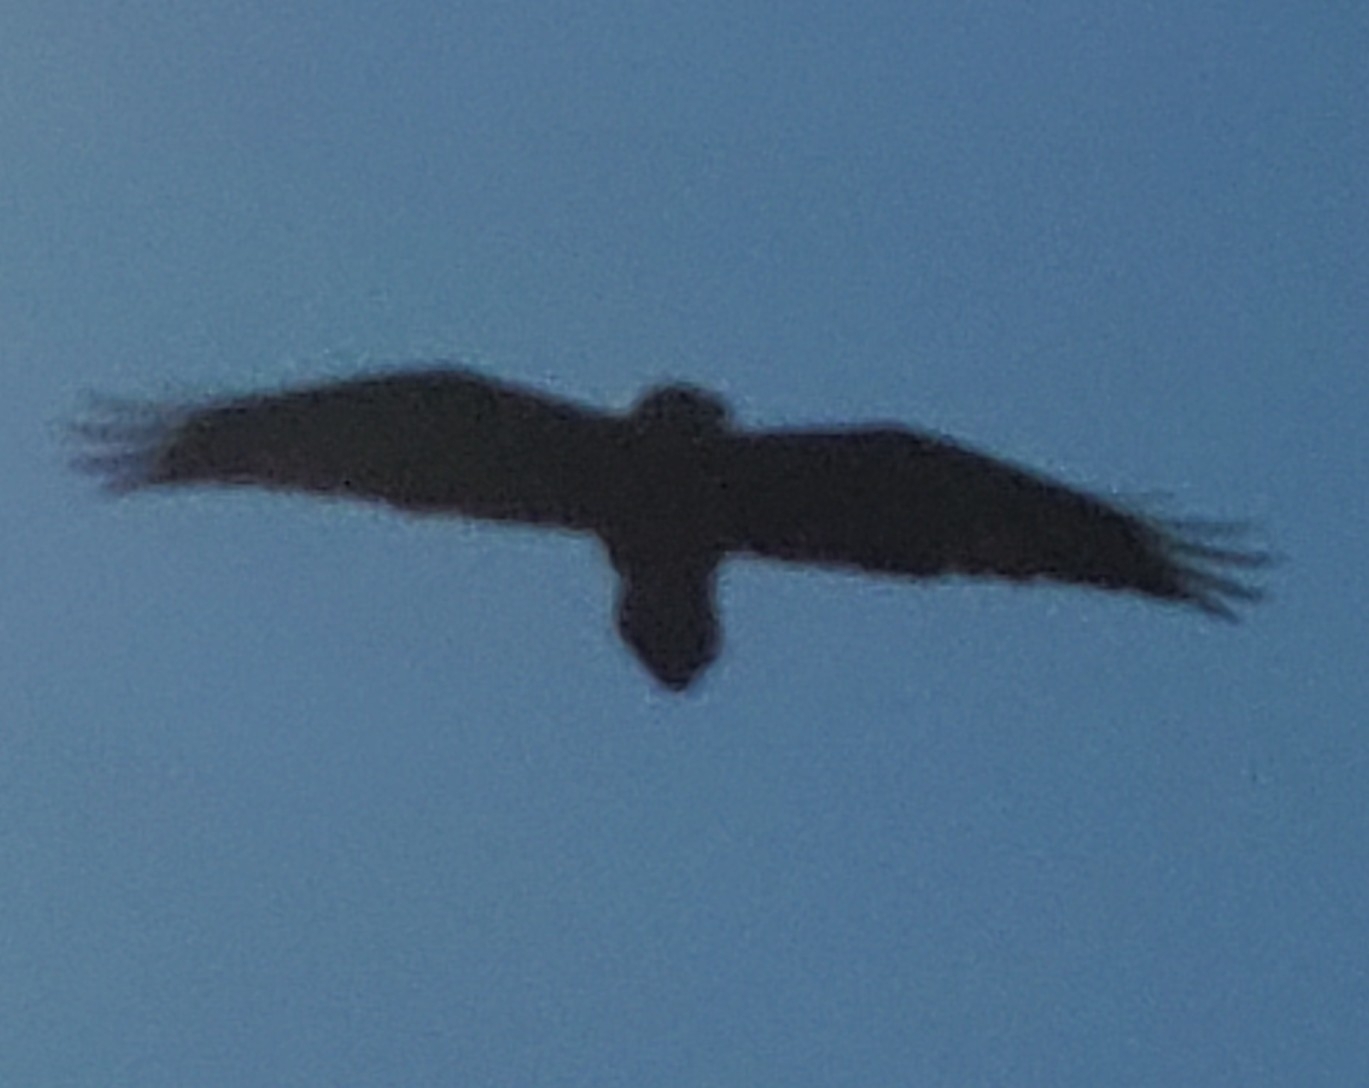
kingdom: Animalia
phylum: Chordata
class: Aves
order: Passeriformes
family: Corvidae
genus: Corvus
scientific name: Corvus corax
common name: Common raven
